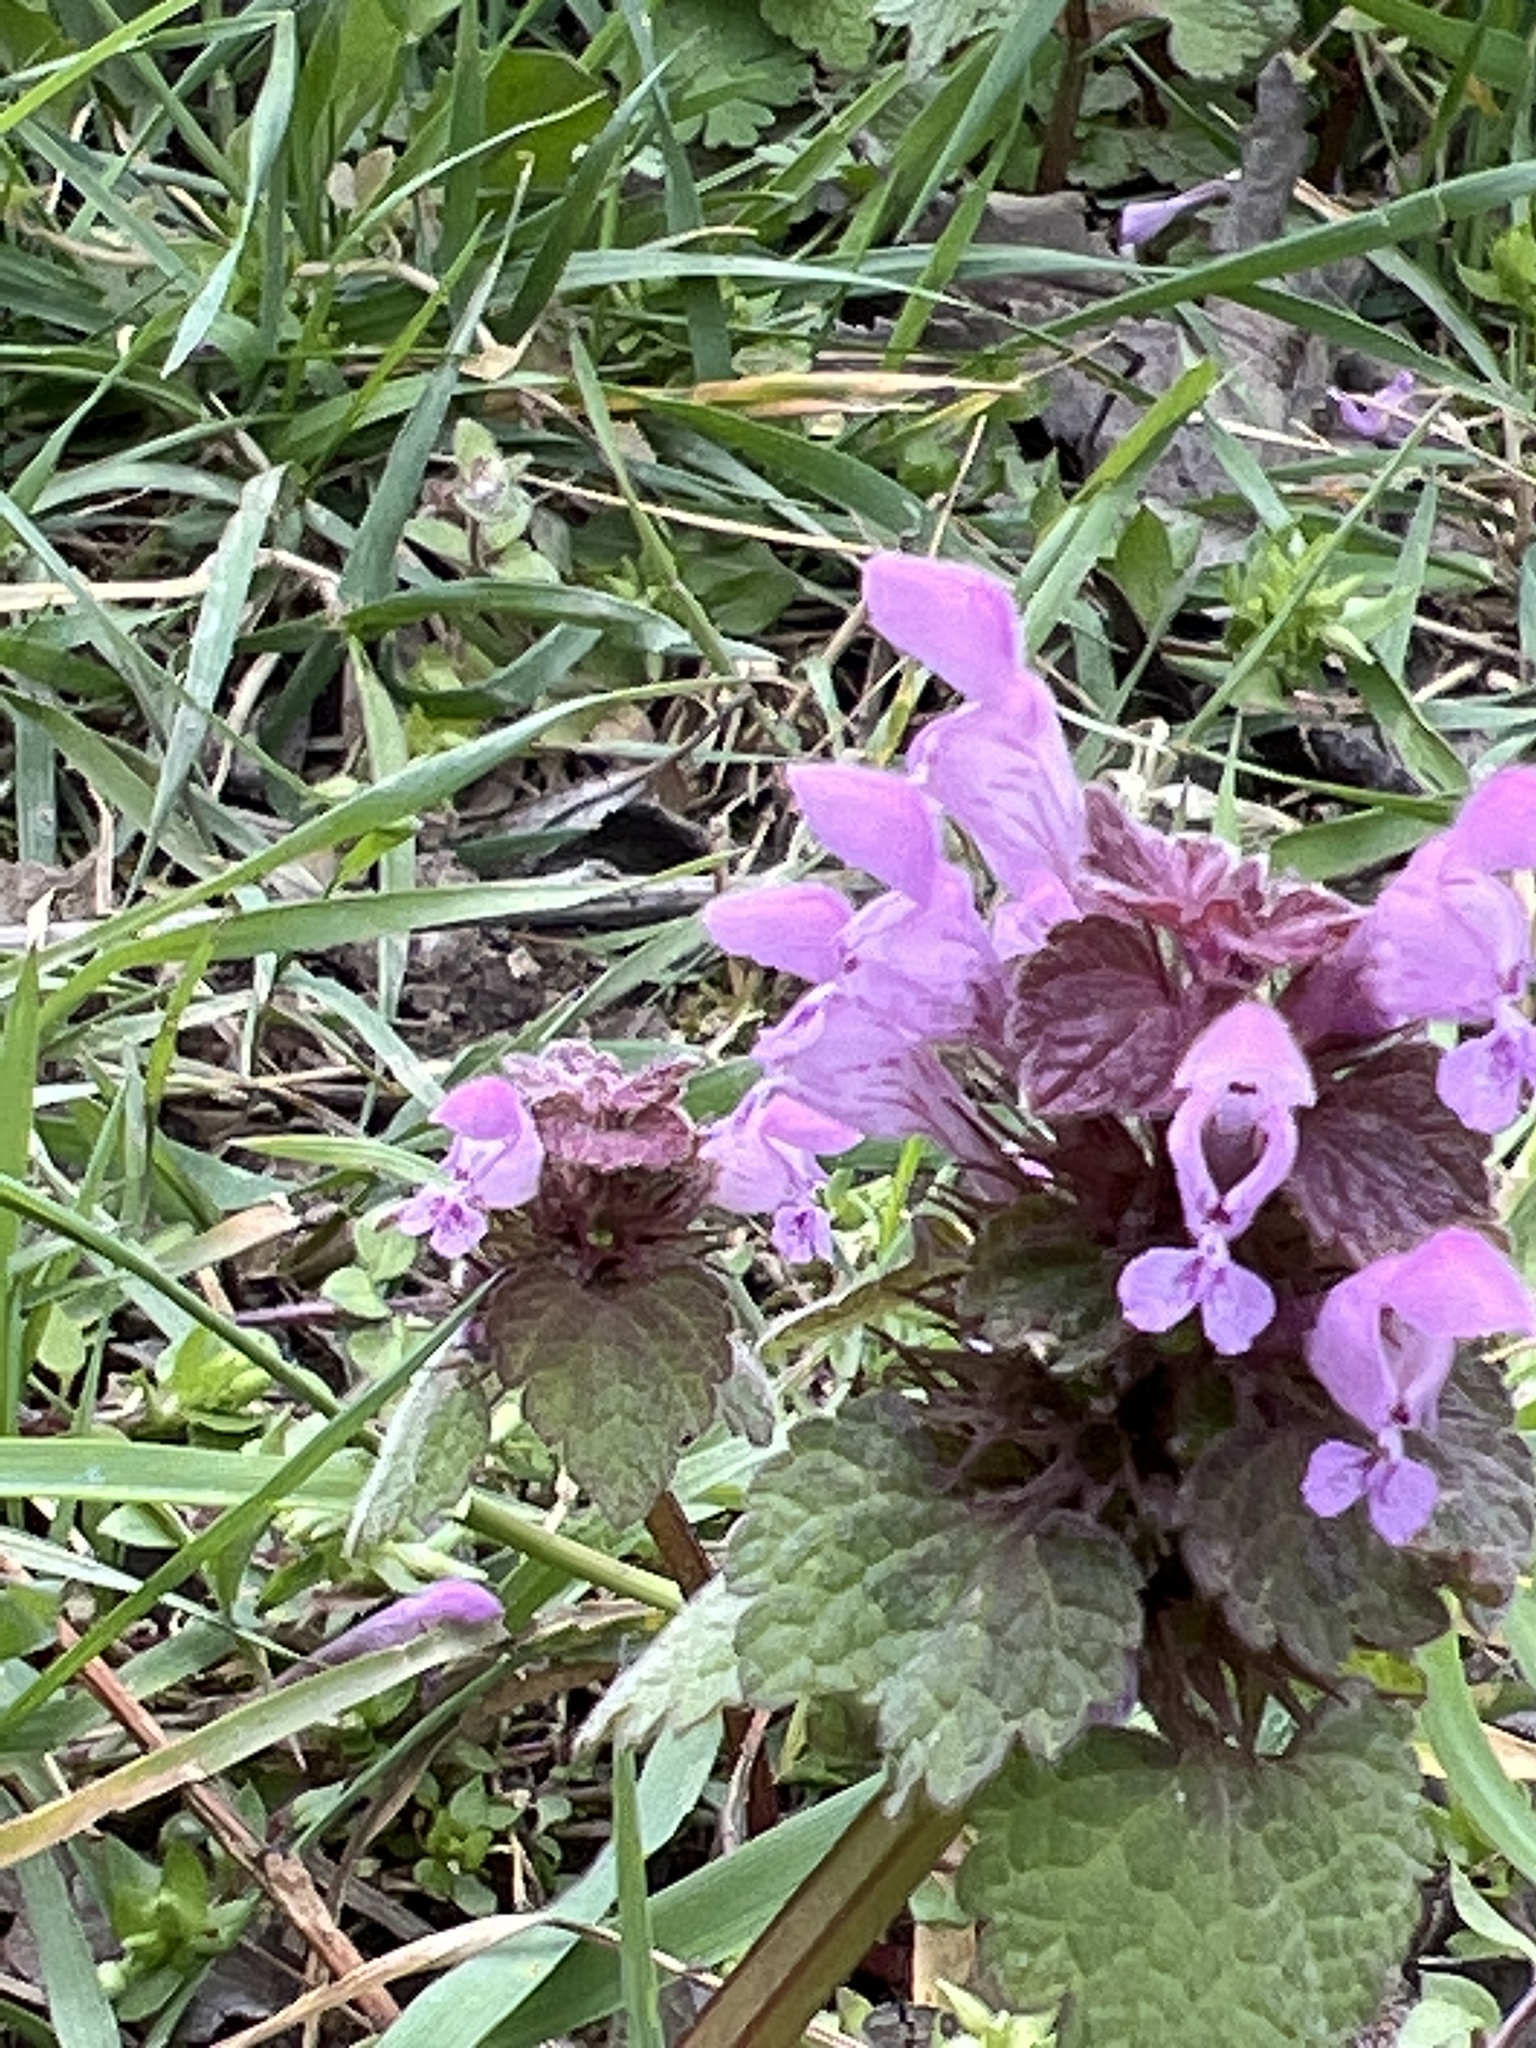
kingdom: Plantae
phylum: Tracheophyta
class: Magnoliopsida
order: Lamiales
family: Lamiaceae
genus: Lamium
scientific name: Lamium purpureum
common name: Red dead-nettle
